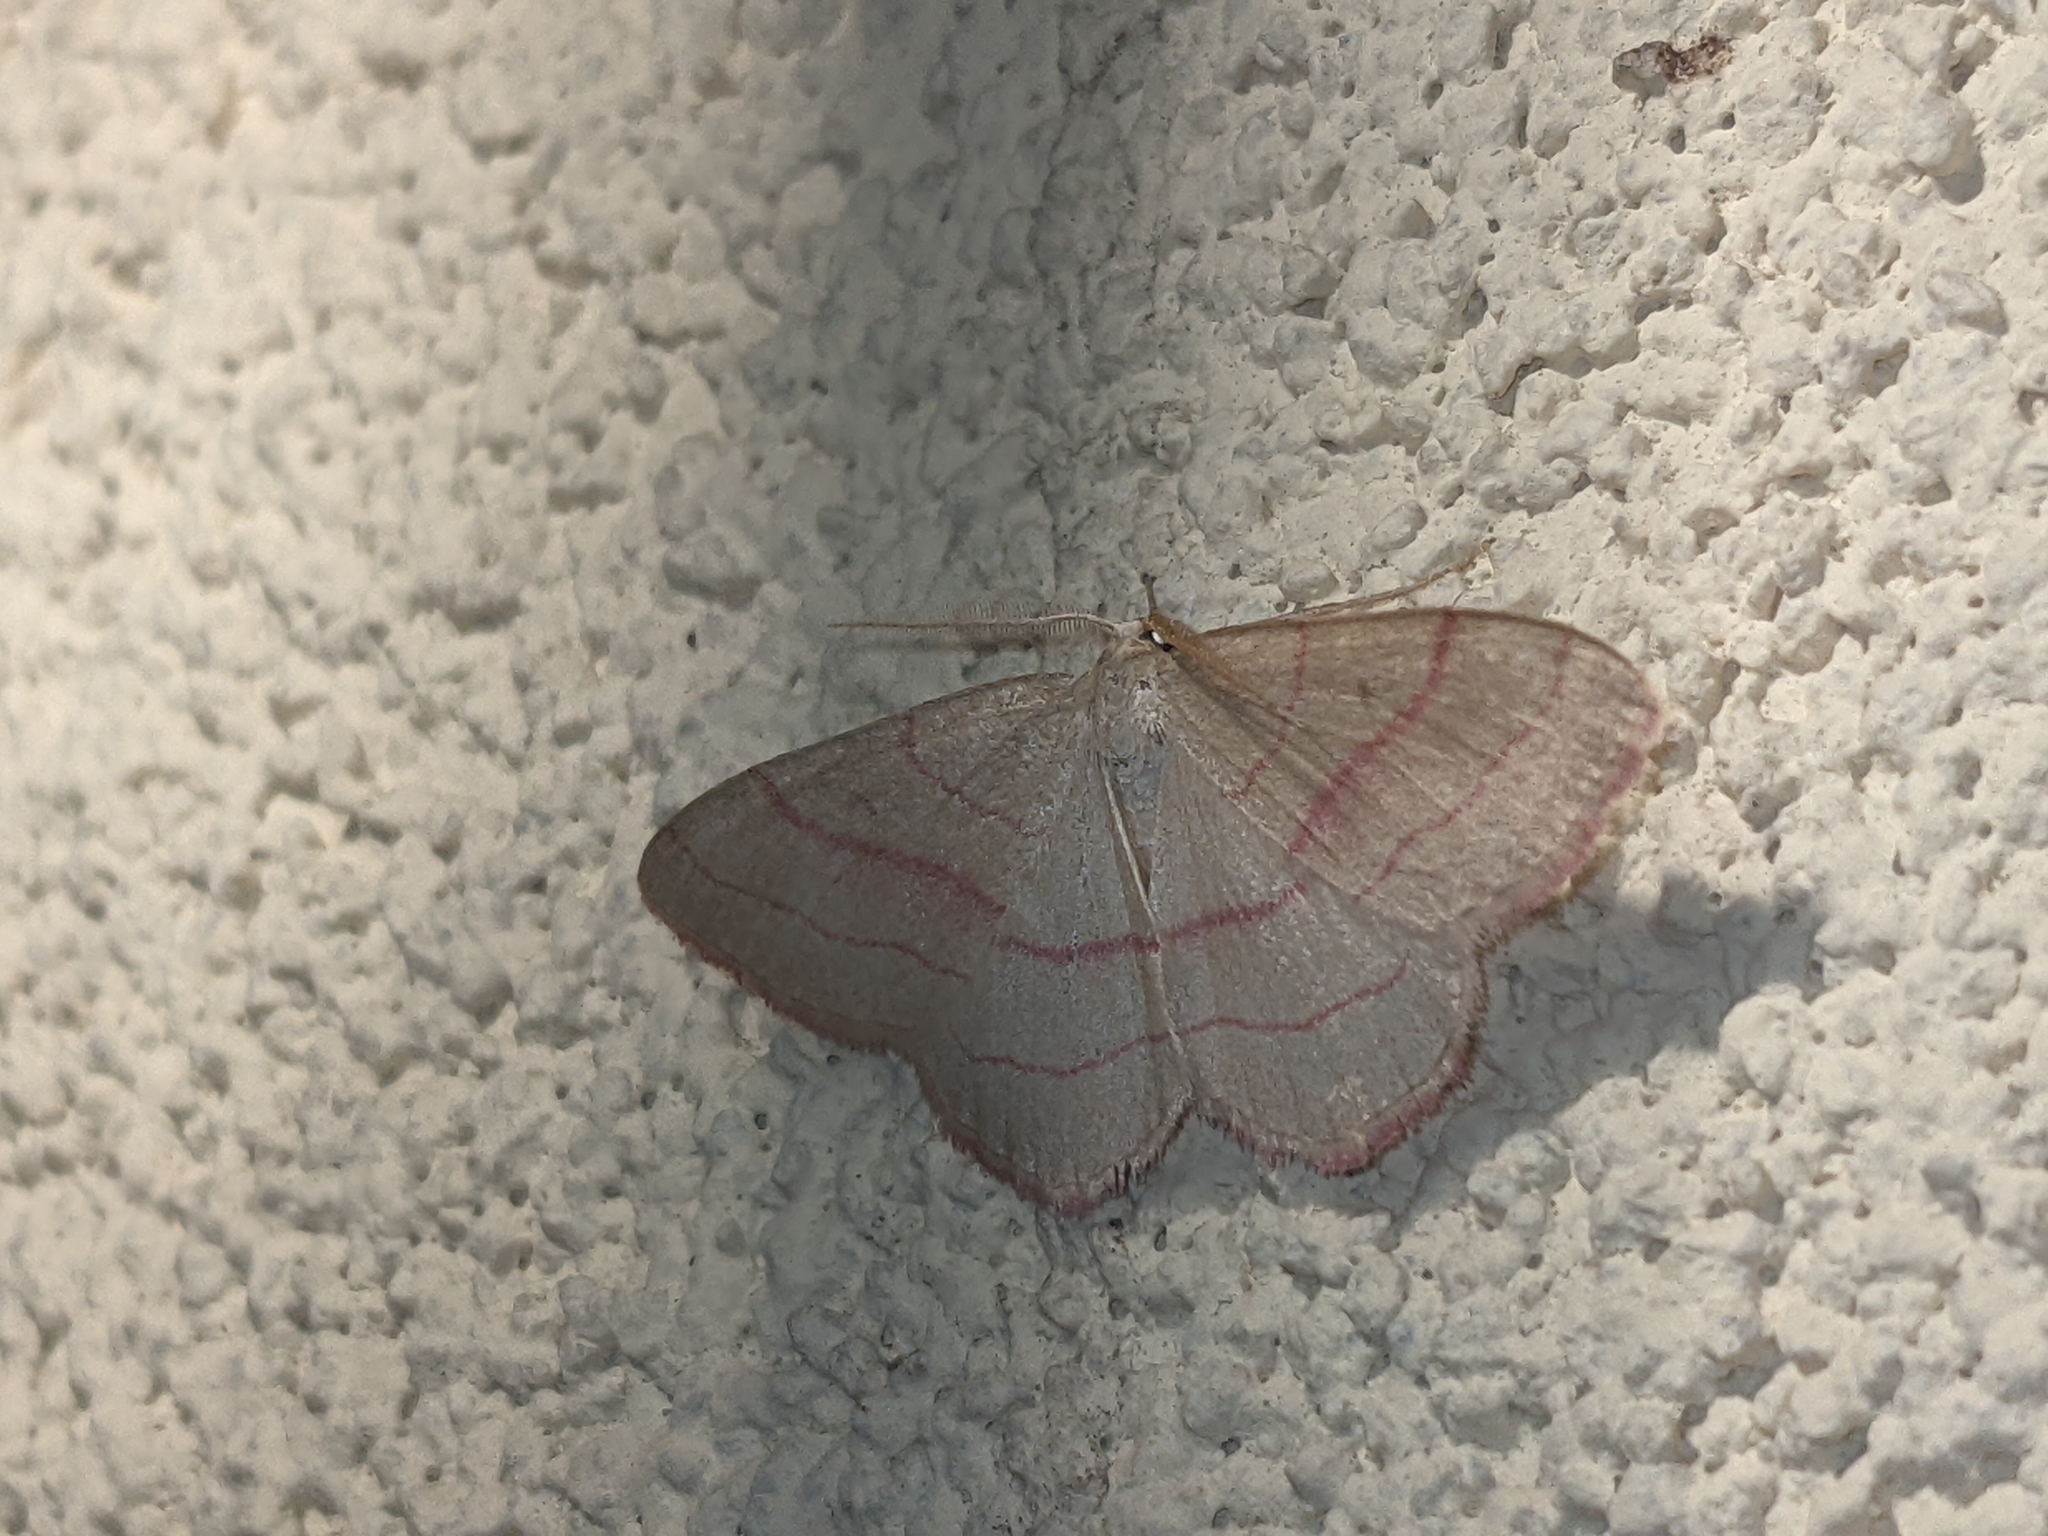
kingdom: Animalia
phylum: Arthropoda
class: Insecta
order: Lepidoptera
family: Geometridae
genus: Rhodostrophia
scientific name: Rhodostrophia vibicaria
